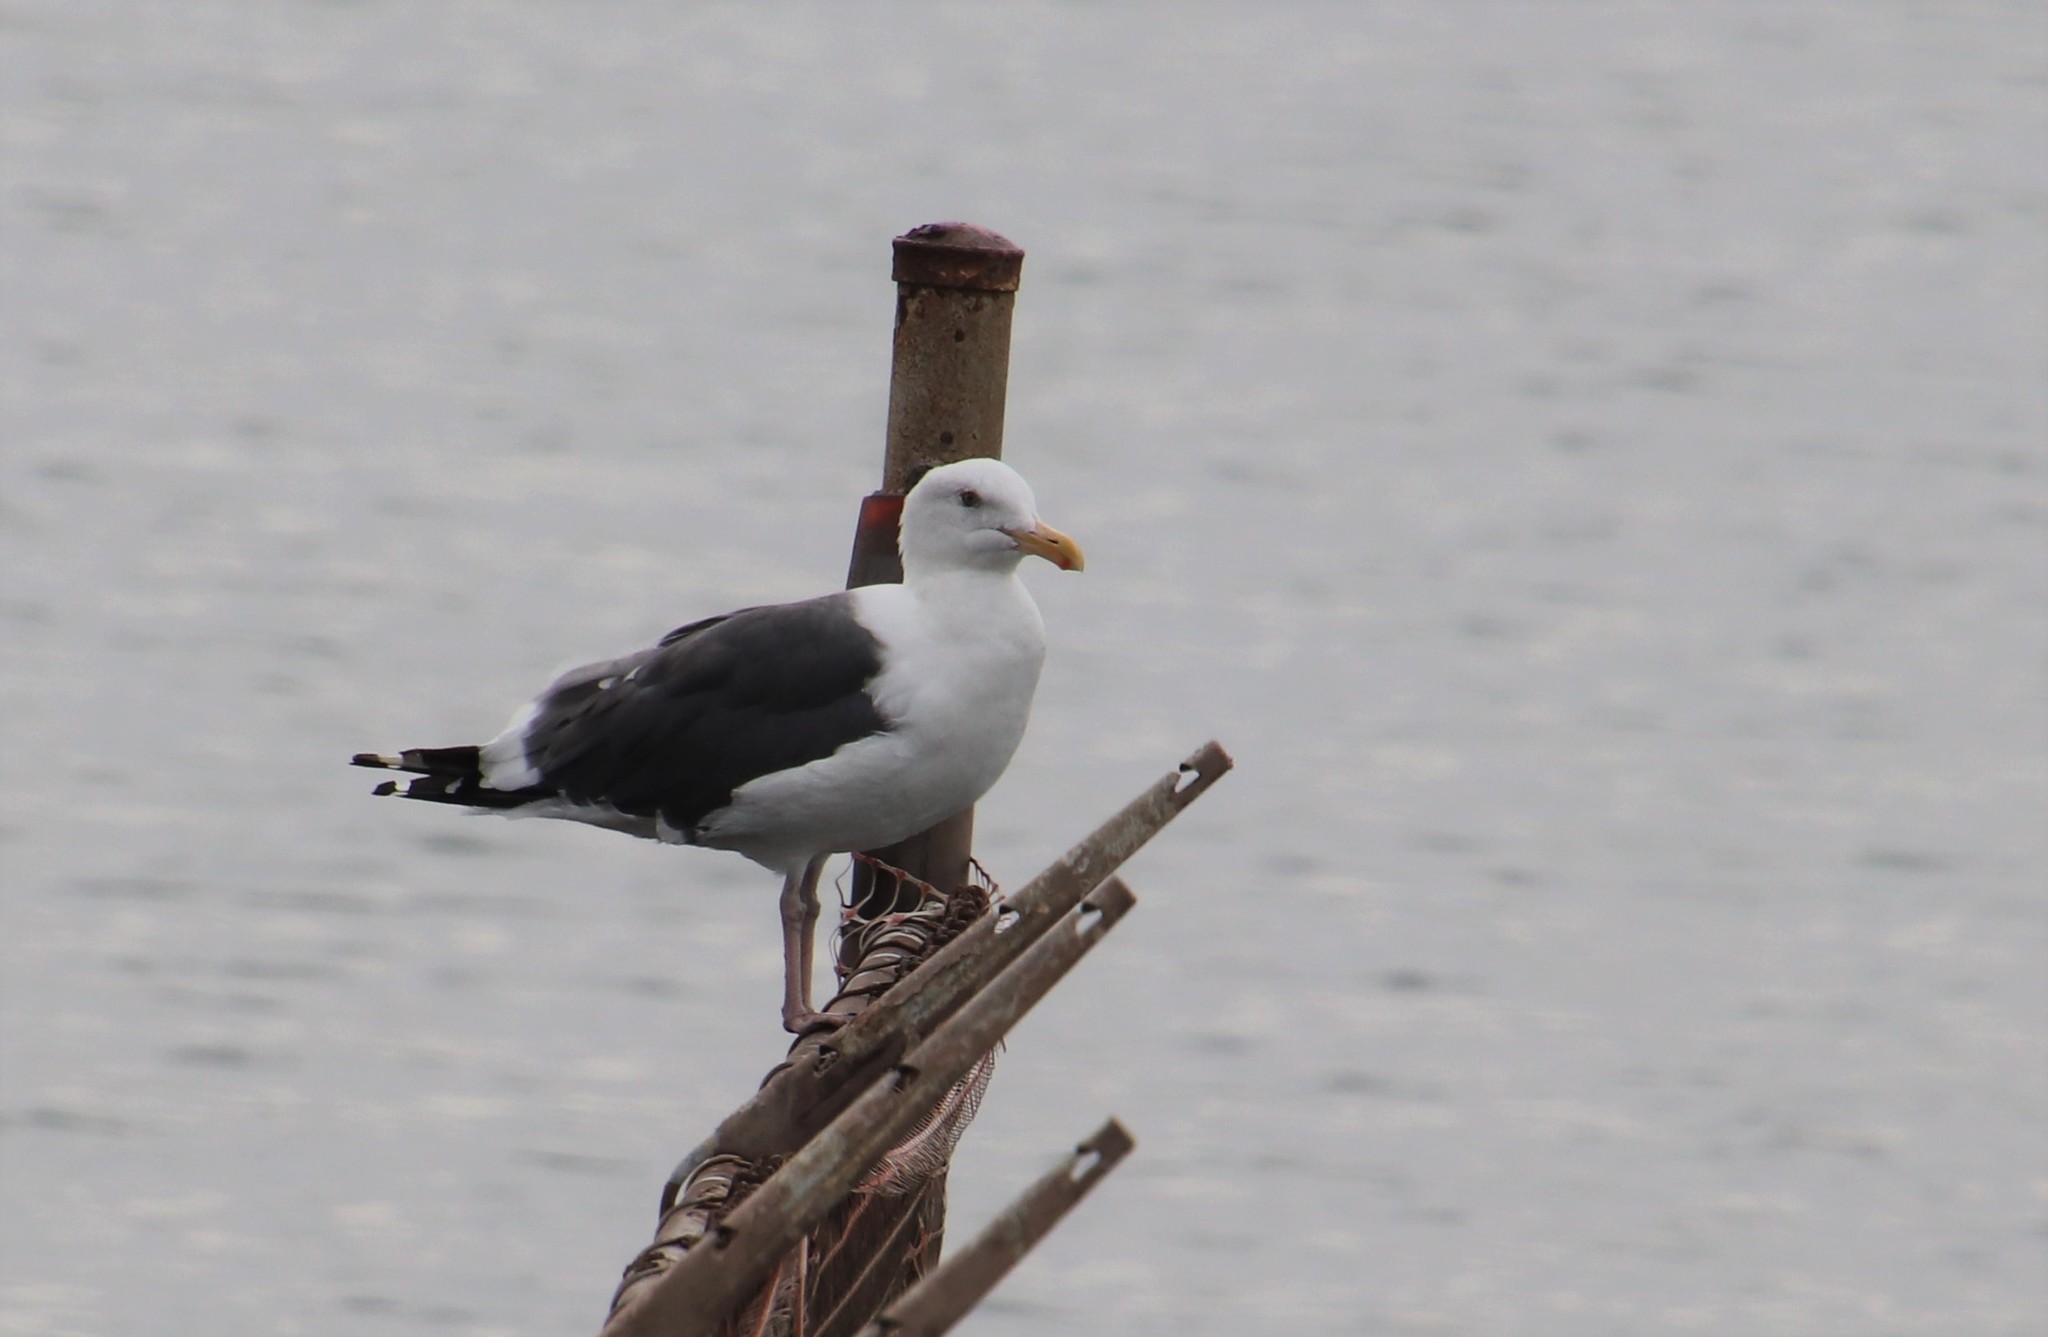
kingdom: Animalia
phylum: Chordata
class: Aves
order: Charadriiformes
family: Laridae
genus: Larus
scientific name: Larus occidentalis
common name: Western gull
